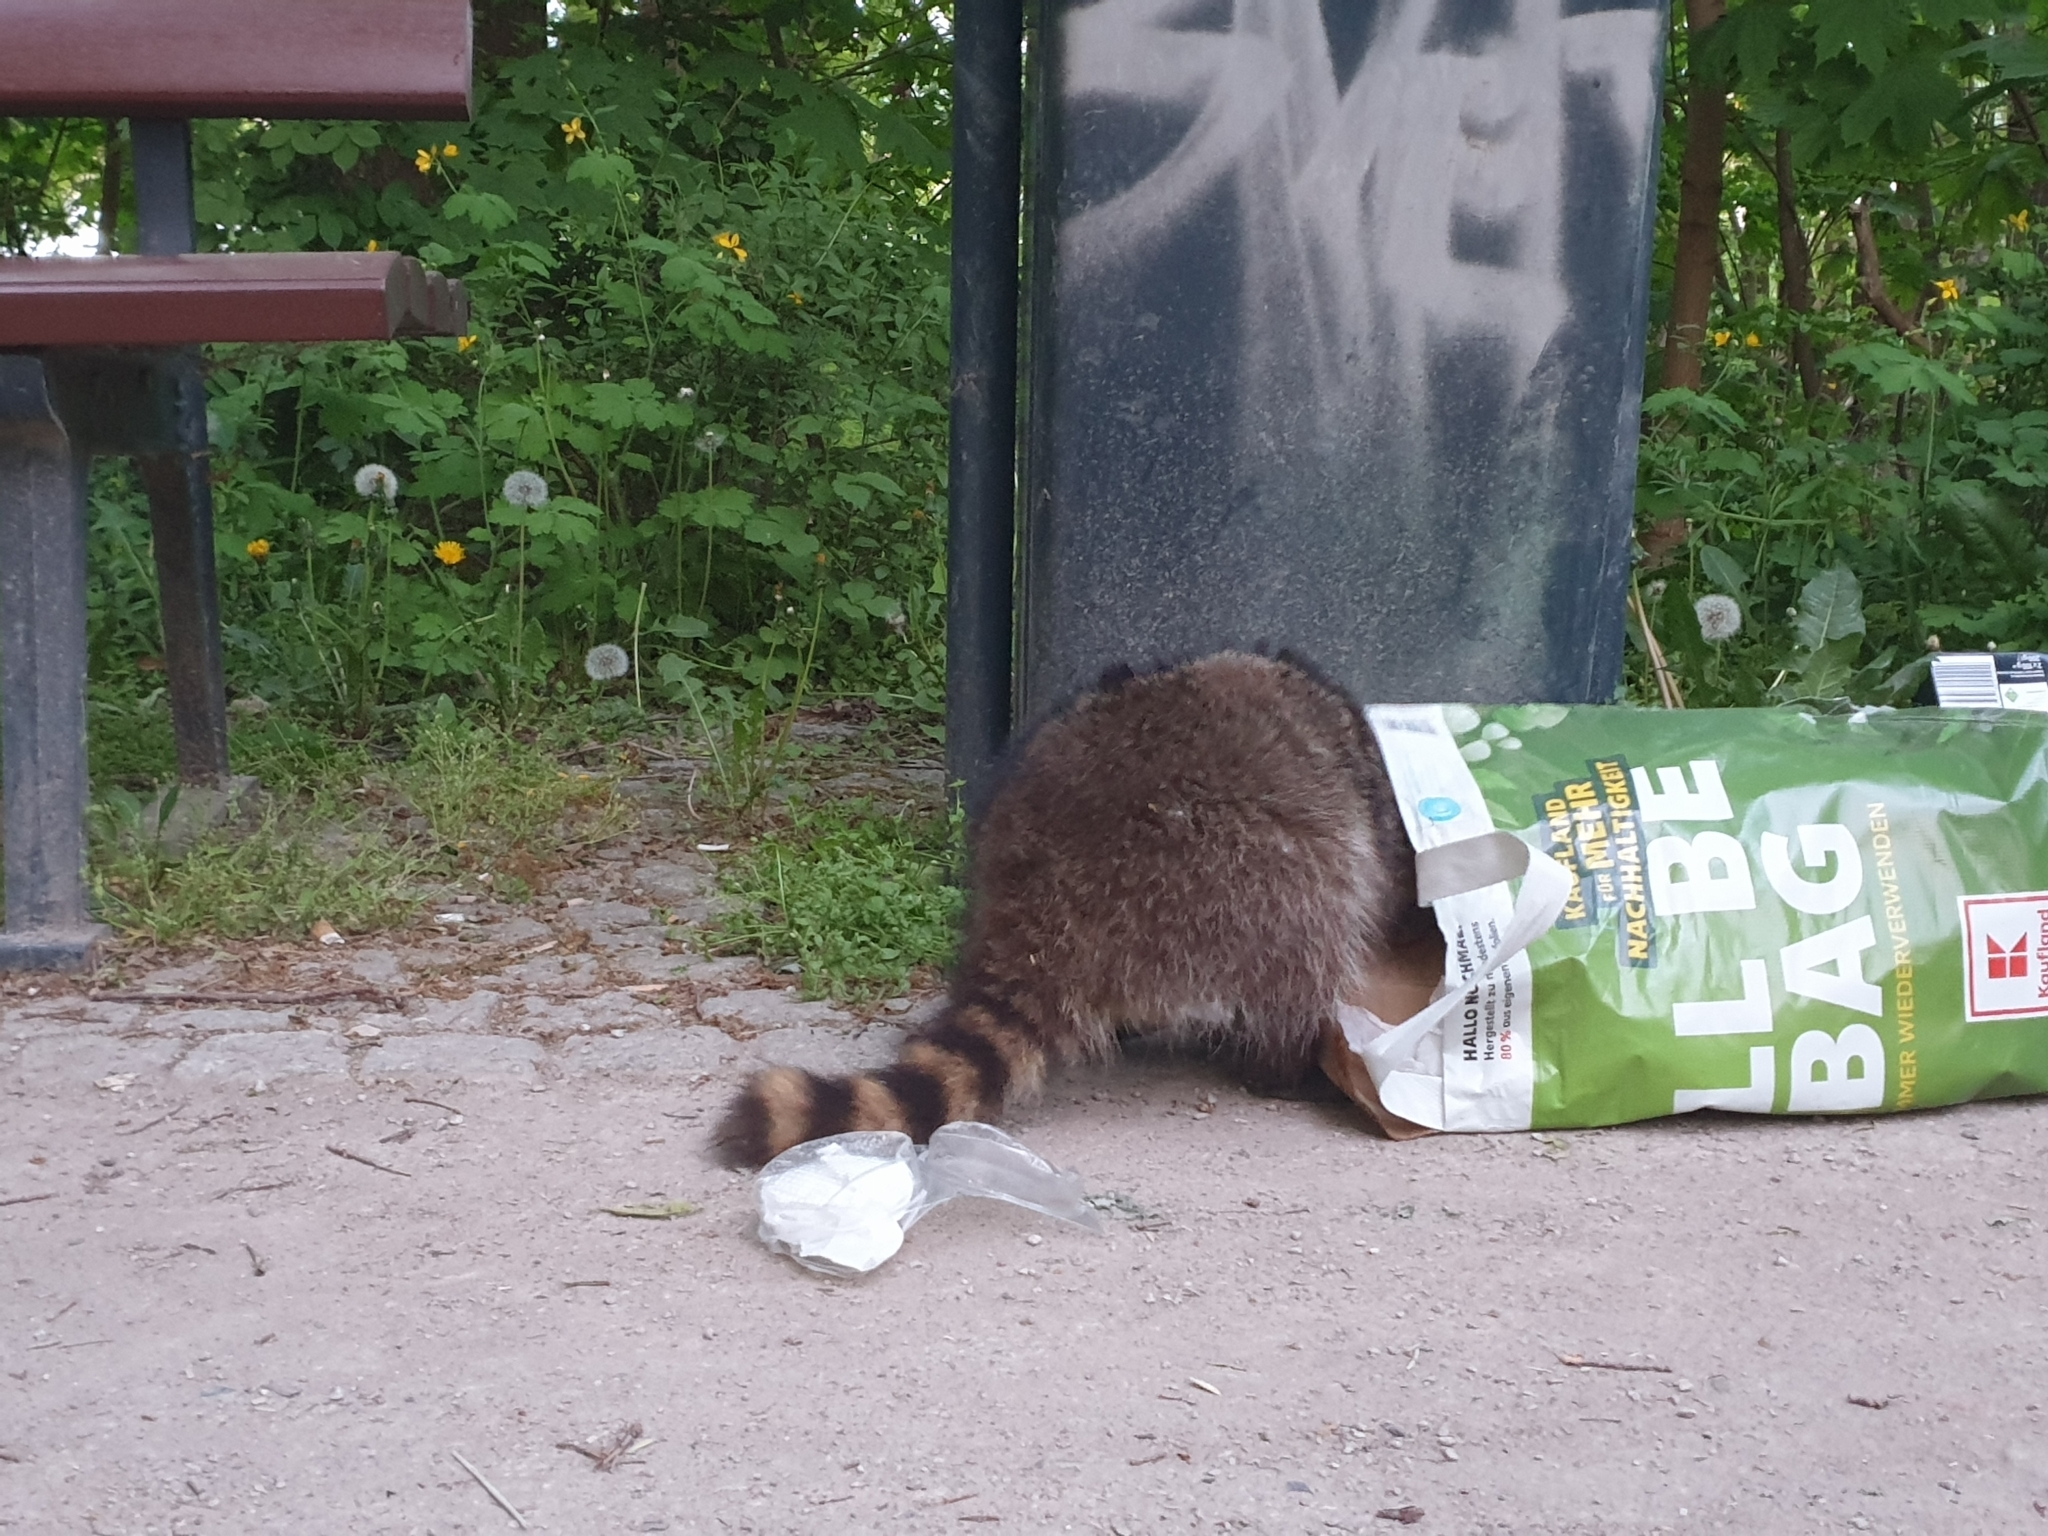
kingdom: Animalia
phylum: Chordata
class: Mammalia
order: Carnivora
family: Procyonidae
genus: Procyon
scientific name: Procyon lotor
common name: Raccoon
